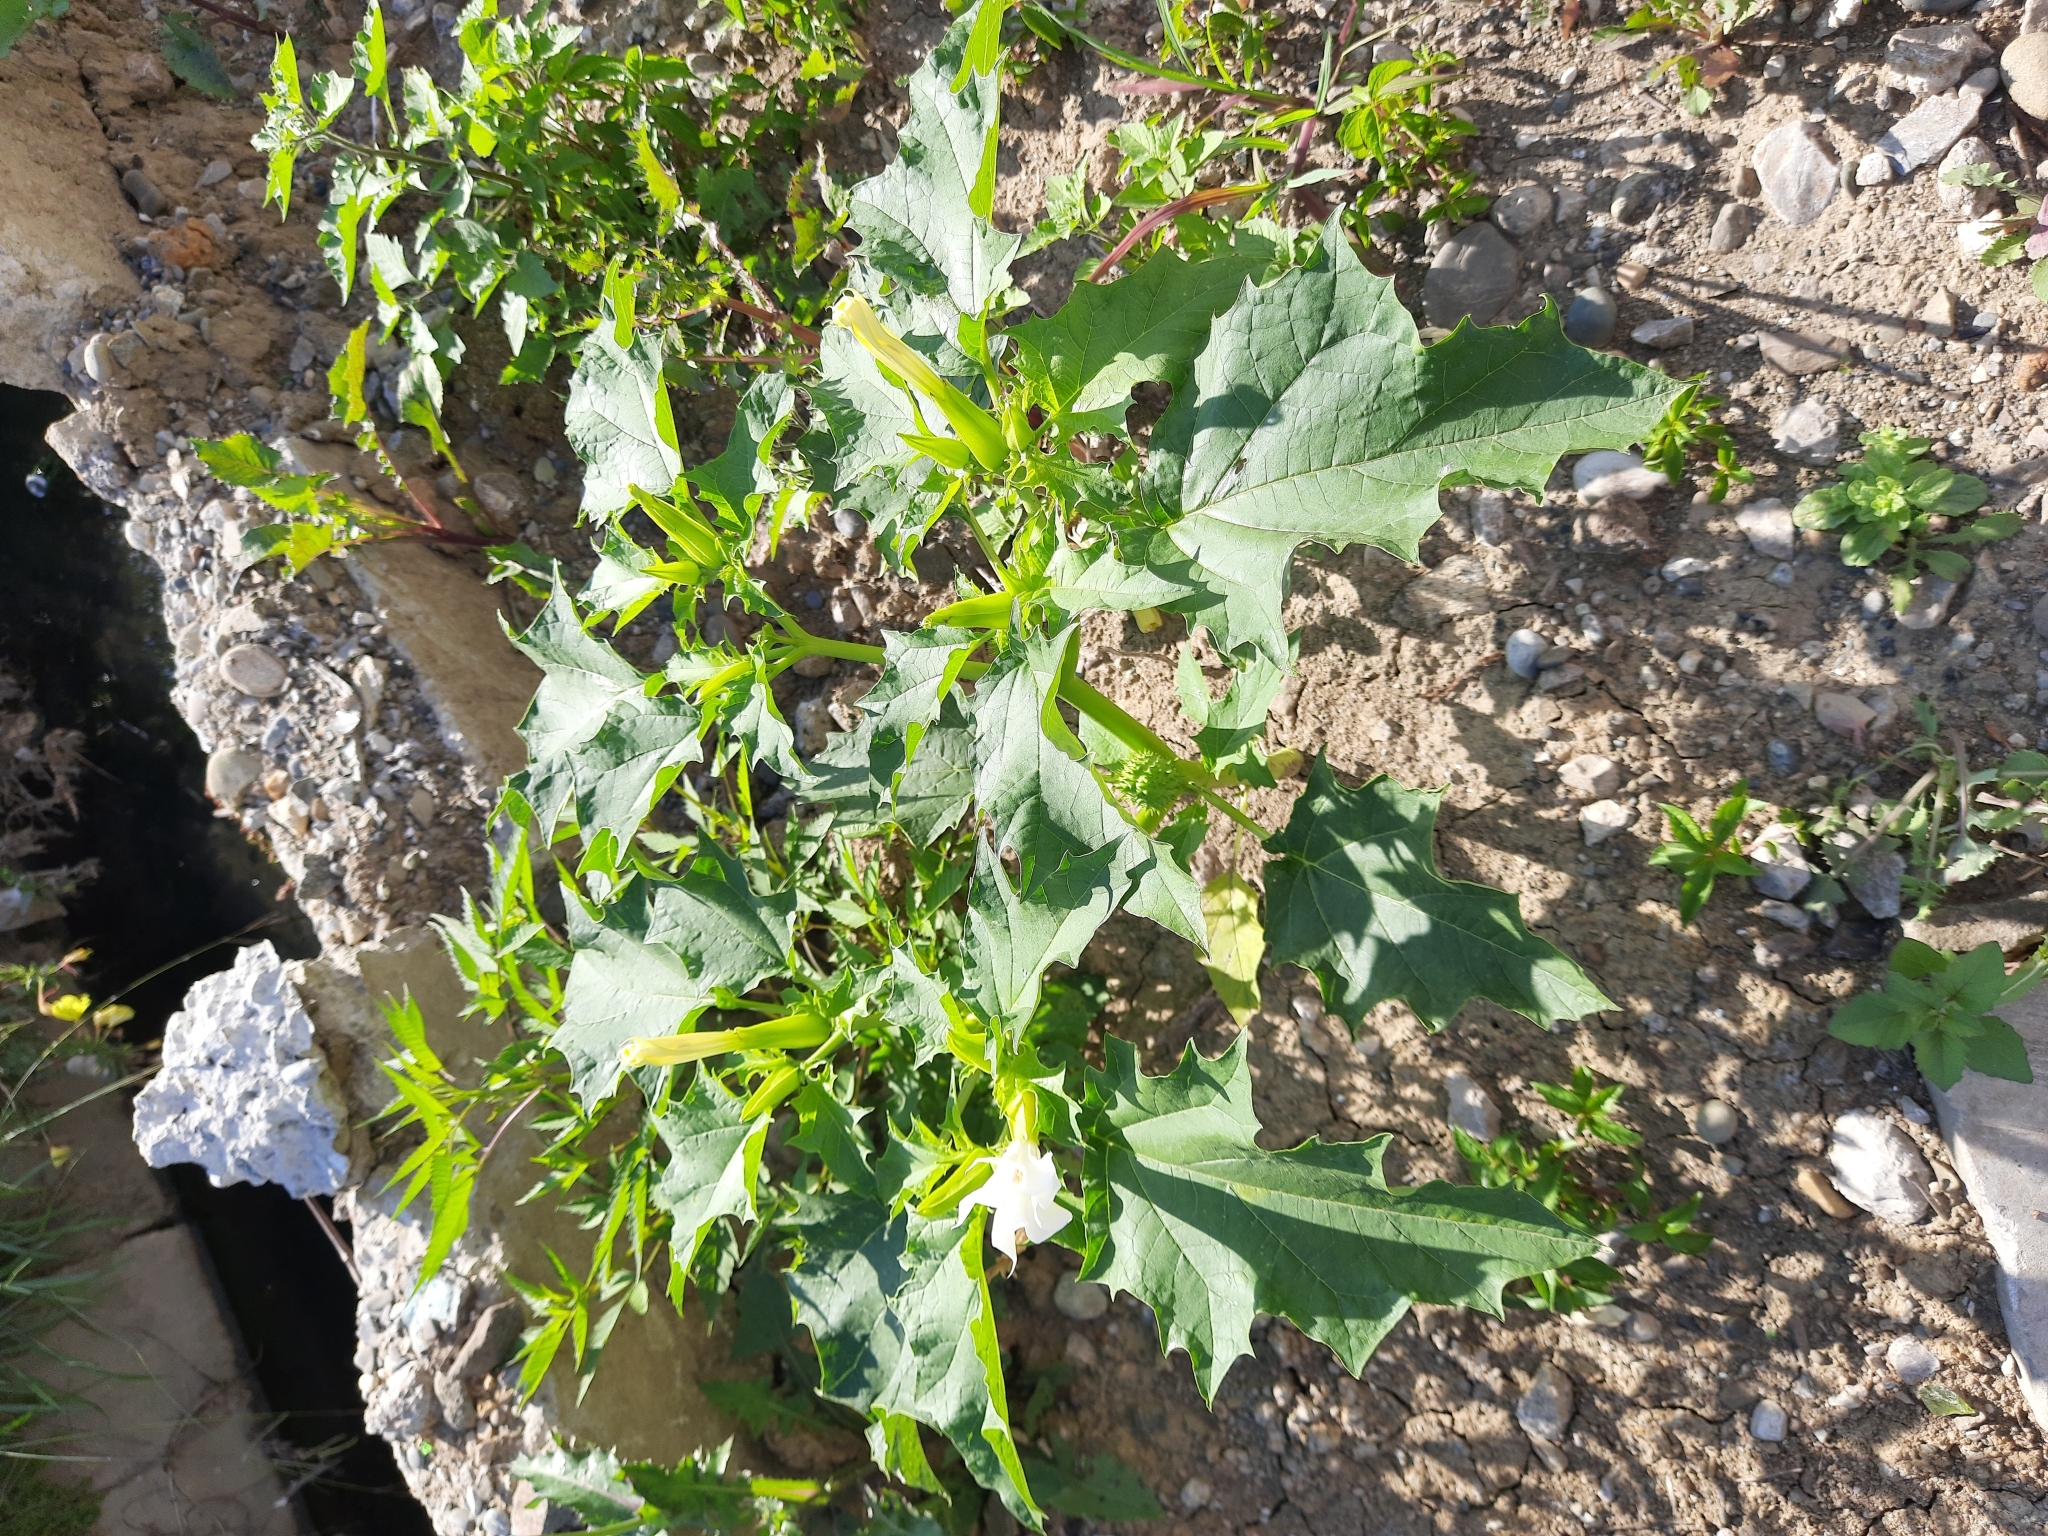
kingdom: Plantae
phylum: Tracheophyta
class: Magnoliopsida
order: Solanales
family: Solanaceae
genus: Datura
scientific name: Datura stramonium
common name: Thorn-apple
